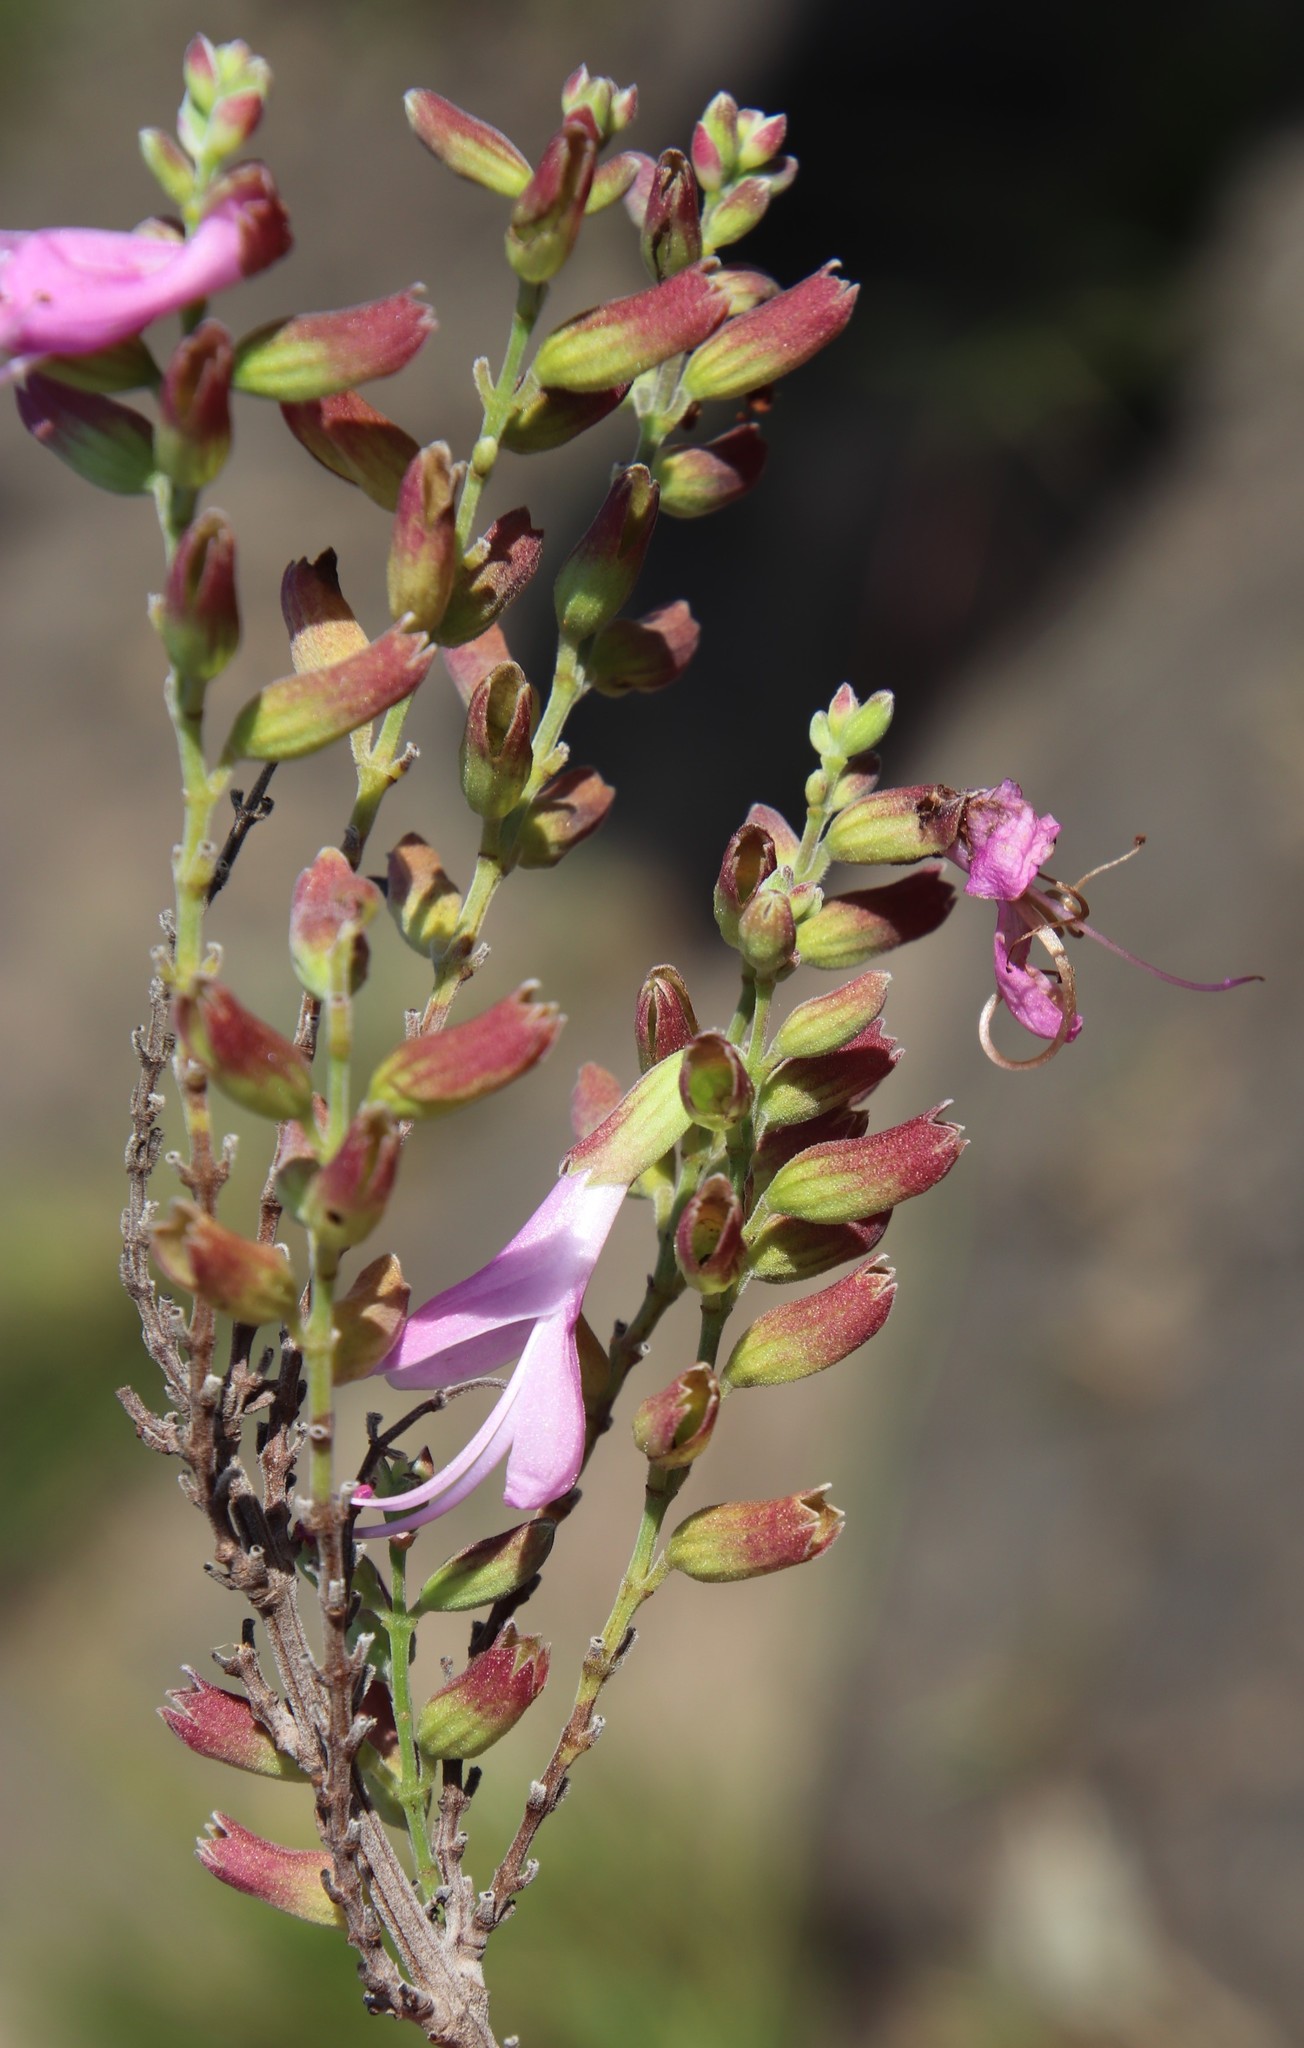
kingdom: Plantae
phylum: Tracheophyta
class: Magnoliopsida
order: Lamiales
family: Lamiaceae
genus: Syncolostemon
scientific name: Syncolostemon rotundifolius
